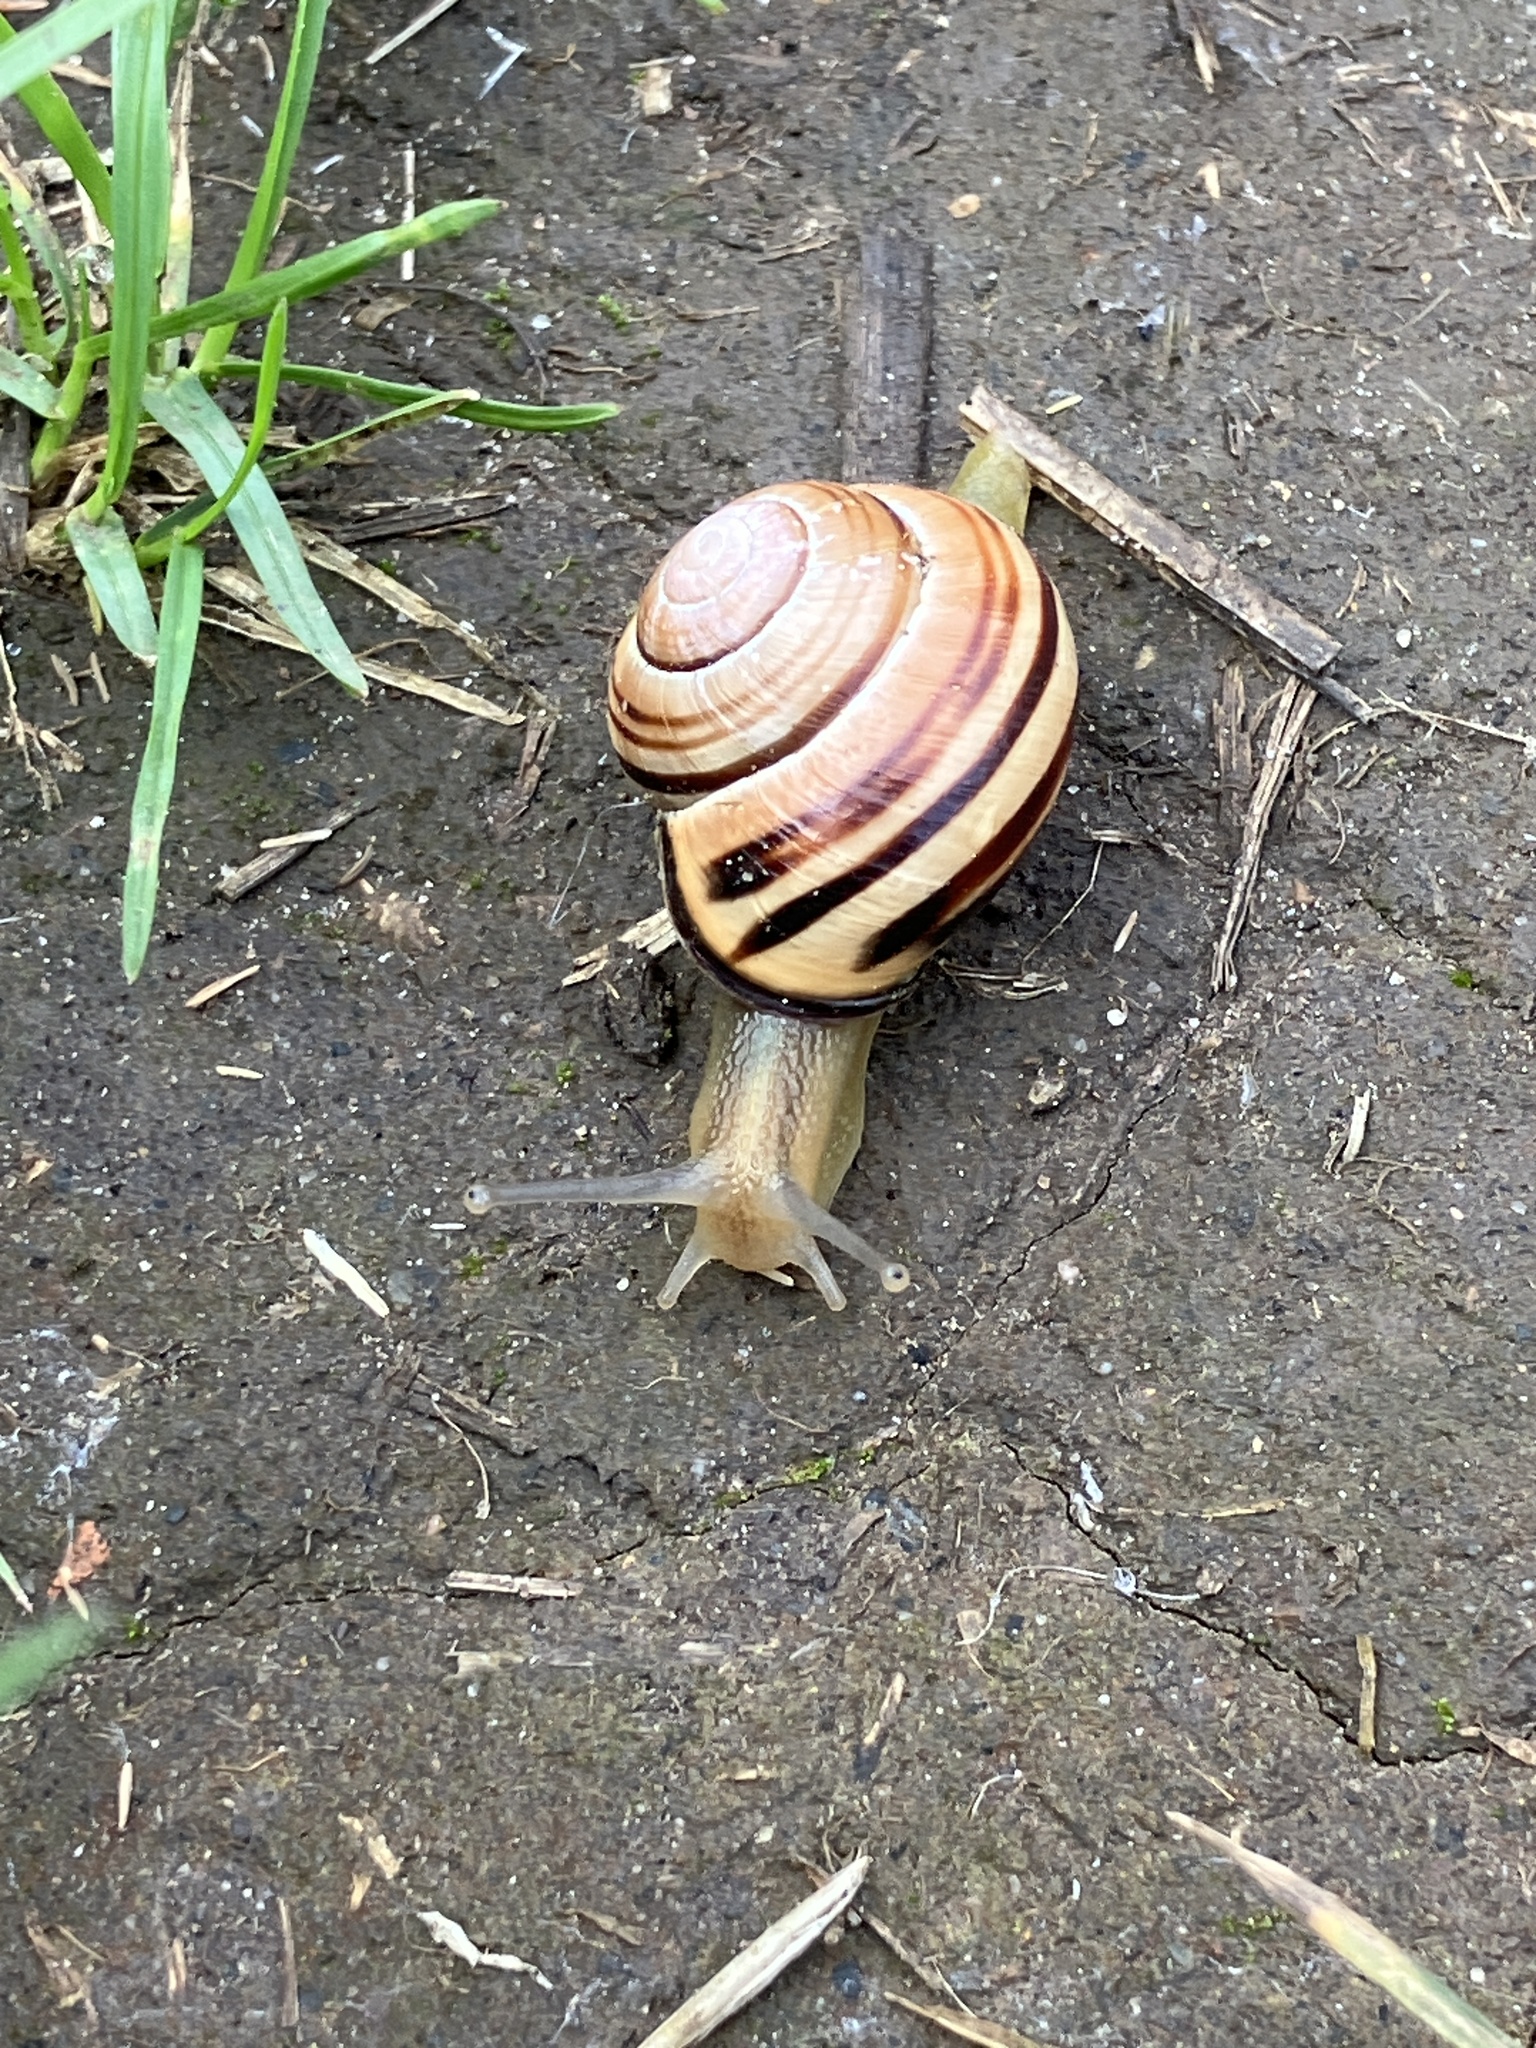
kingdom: Animalia
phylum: Mollusca
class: Gastropoda
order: Stylommatophora
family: Helicidae
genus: Cepaea
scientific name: Cepaea nemoralis
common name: Grovesnail
